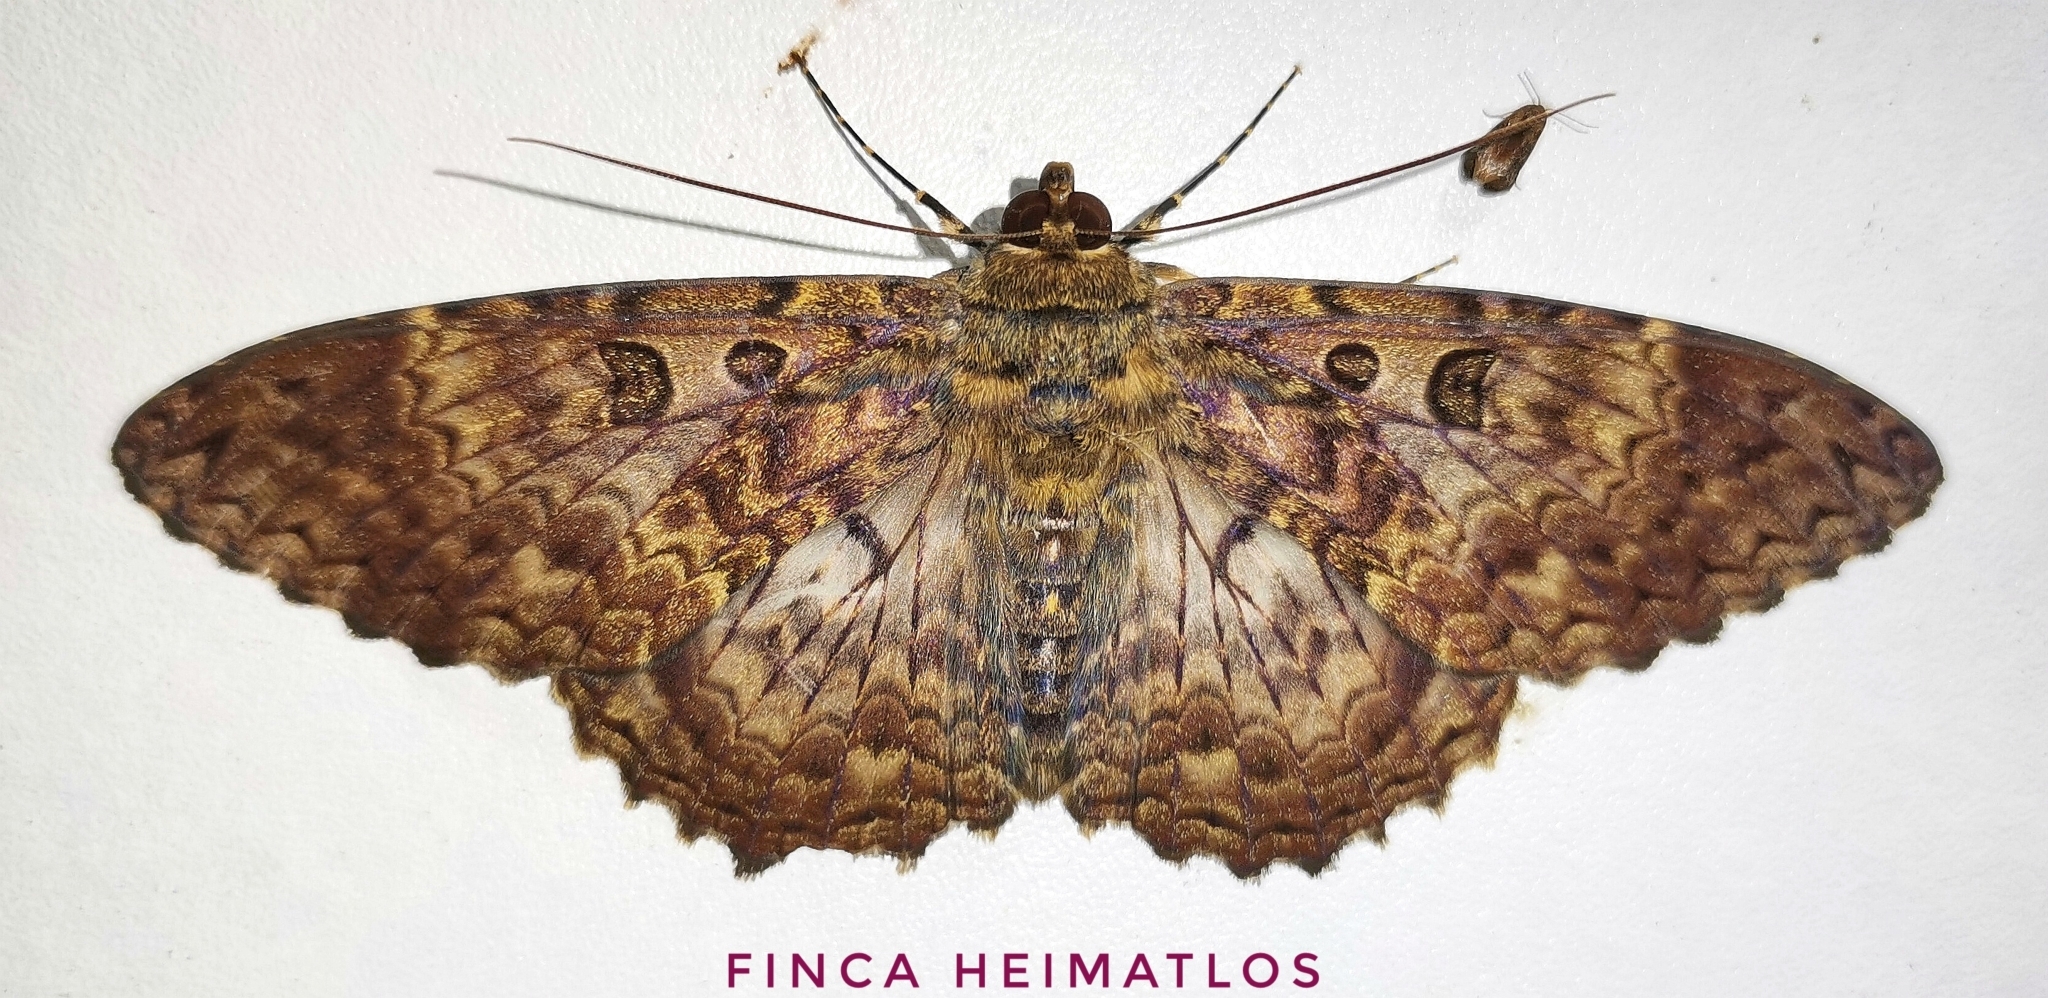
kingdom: Animalia
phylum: Arthropoda
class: Insecta
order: Lepidoptera
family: Erebidae
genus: Feigeria
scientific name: Feigeria scops
